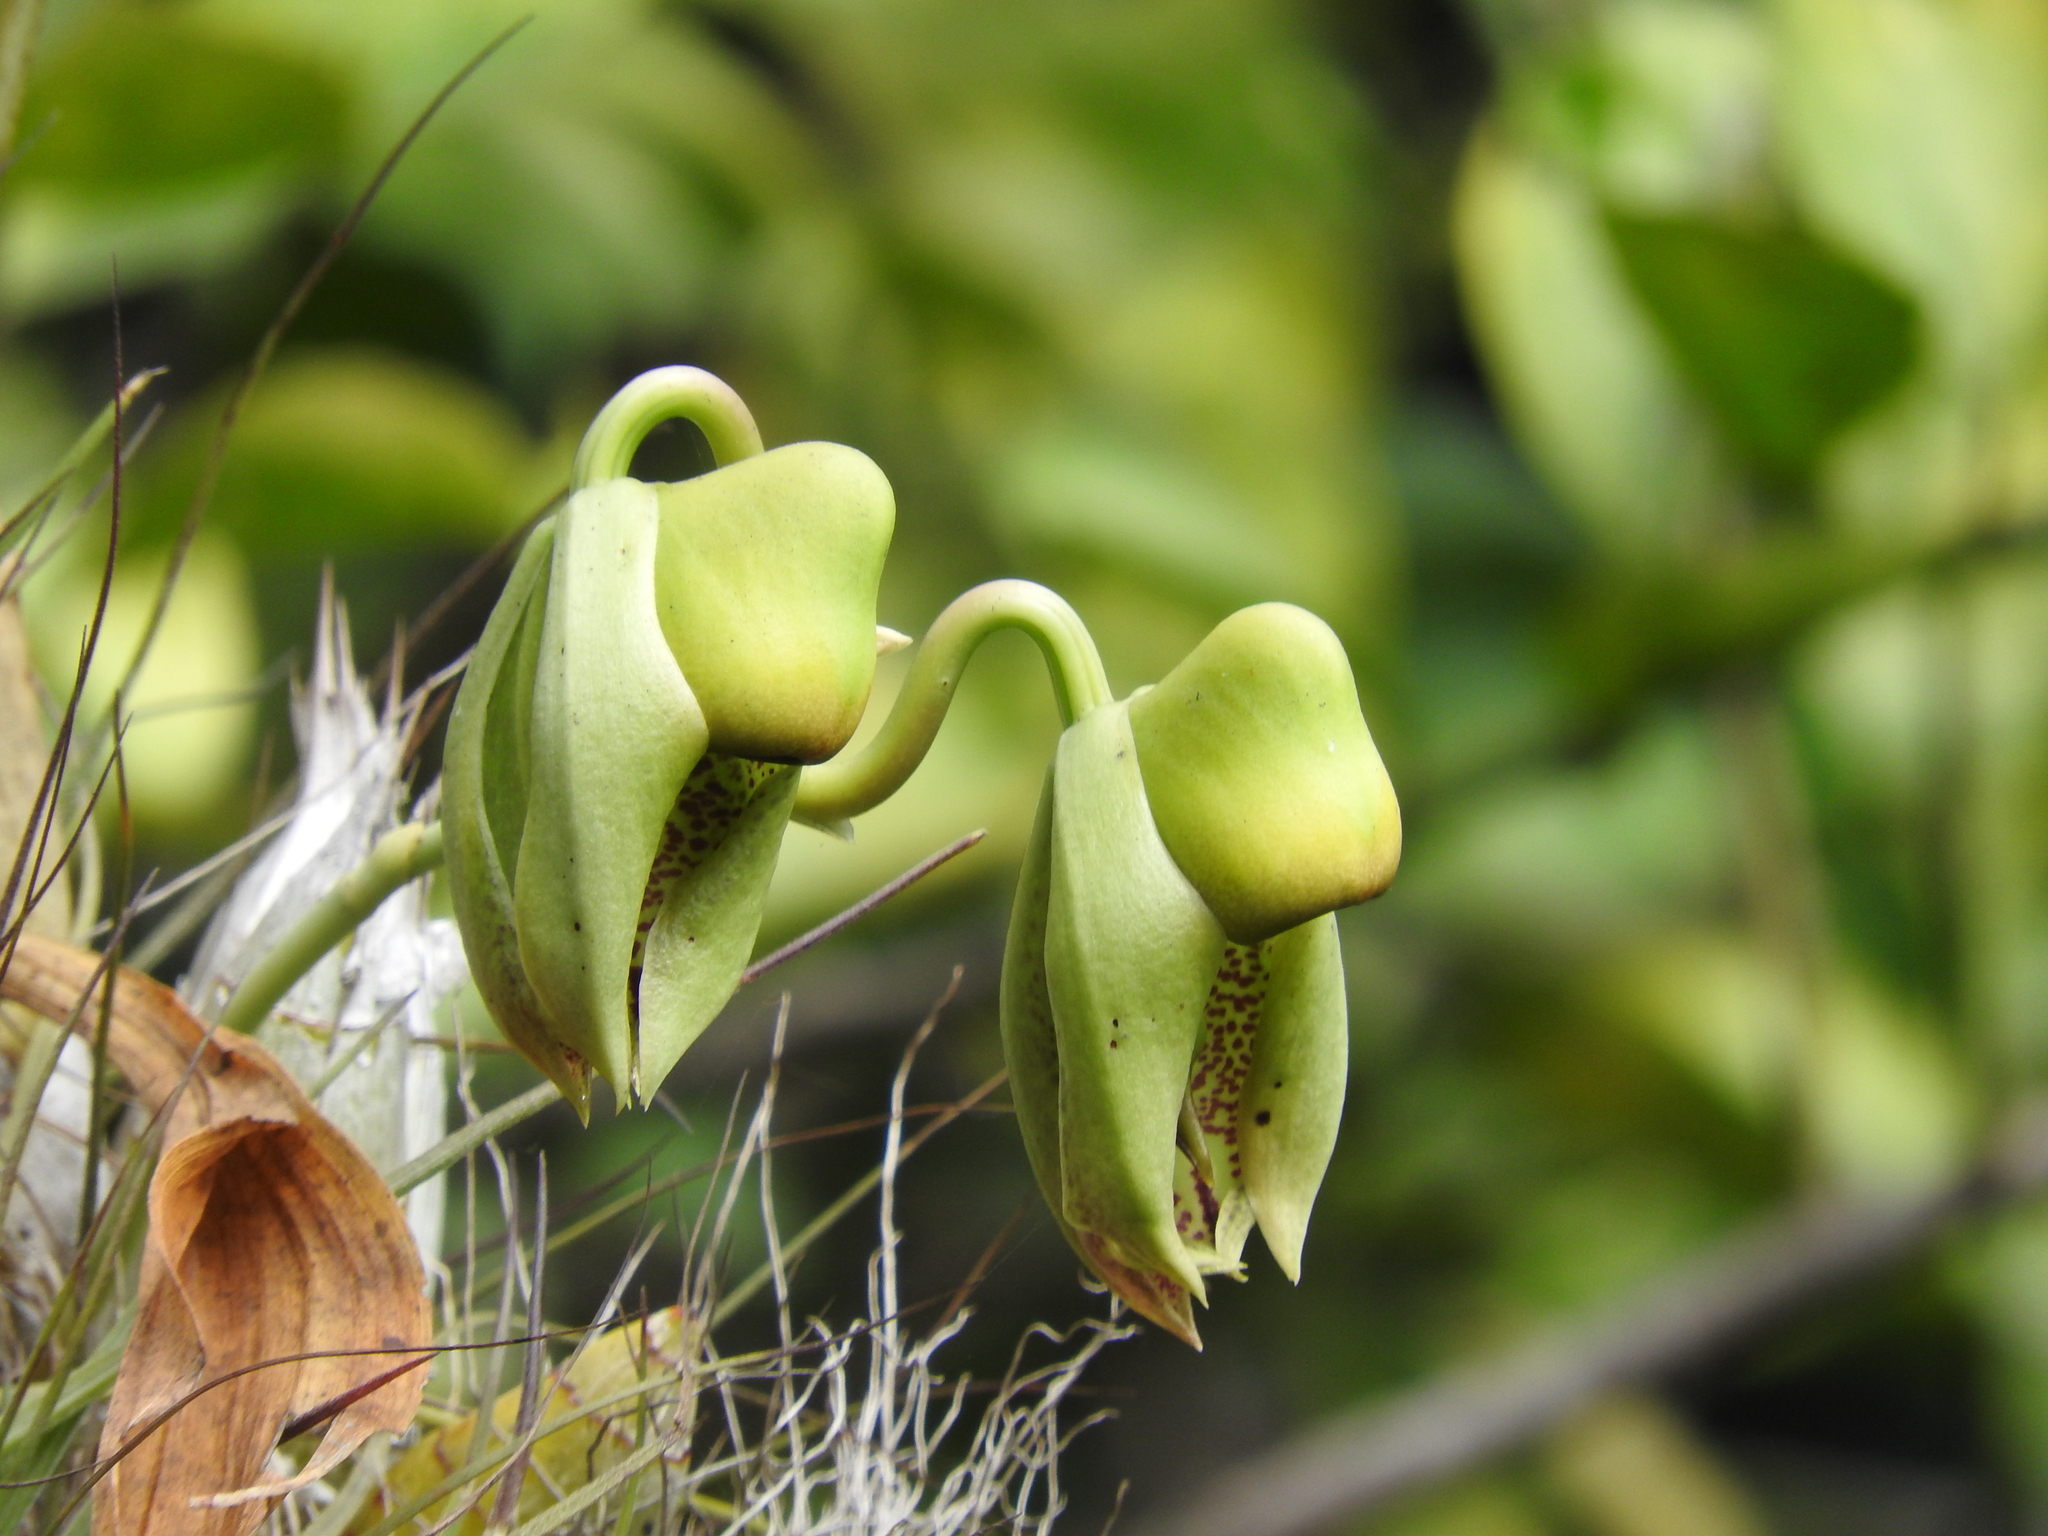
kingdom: Plantae
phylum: Tracheophyta
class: Liliopsida
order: Asparagales
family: Orchidaceae
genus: Catasetum
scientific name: Catasetum integerrimum
